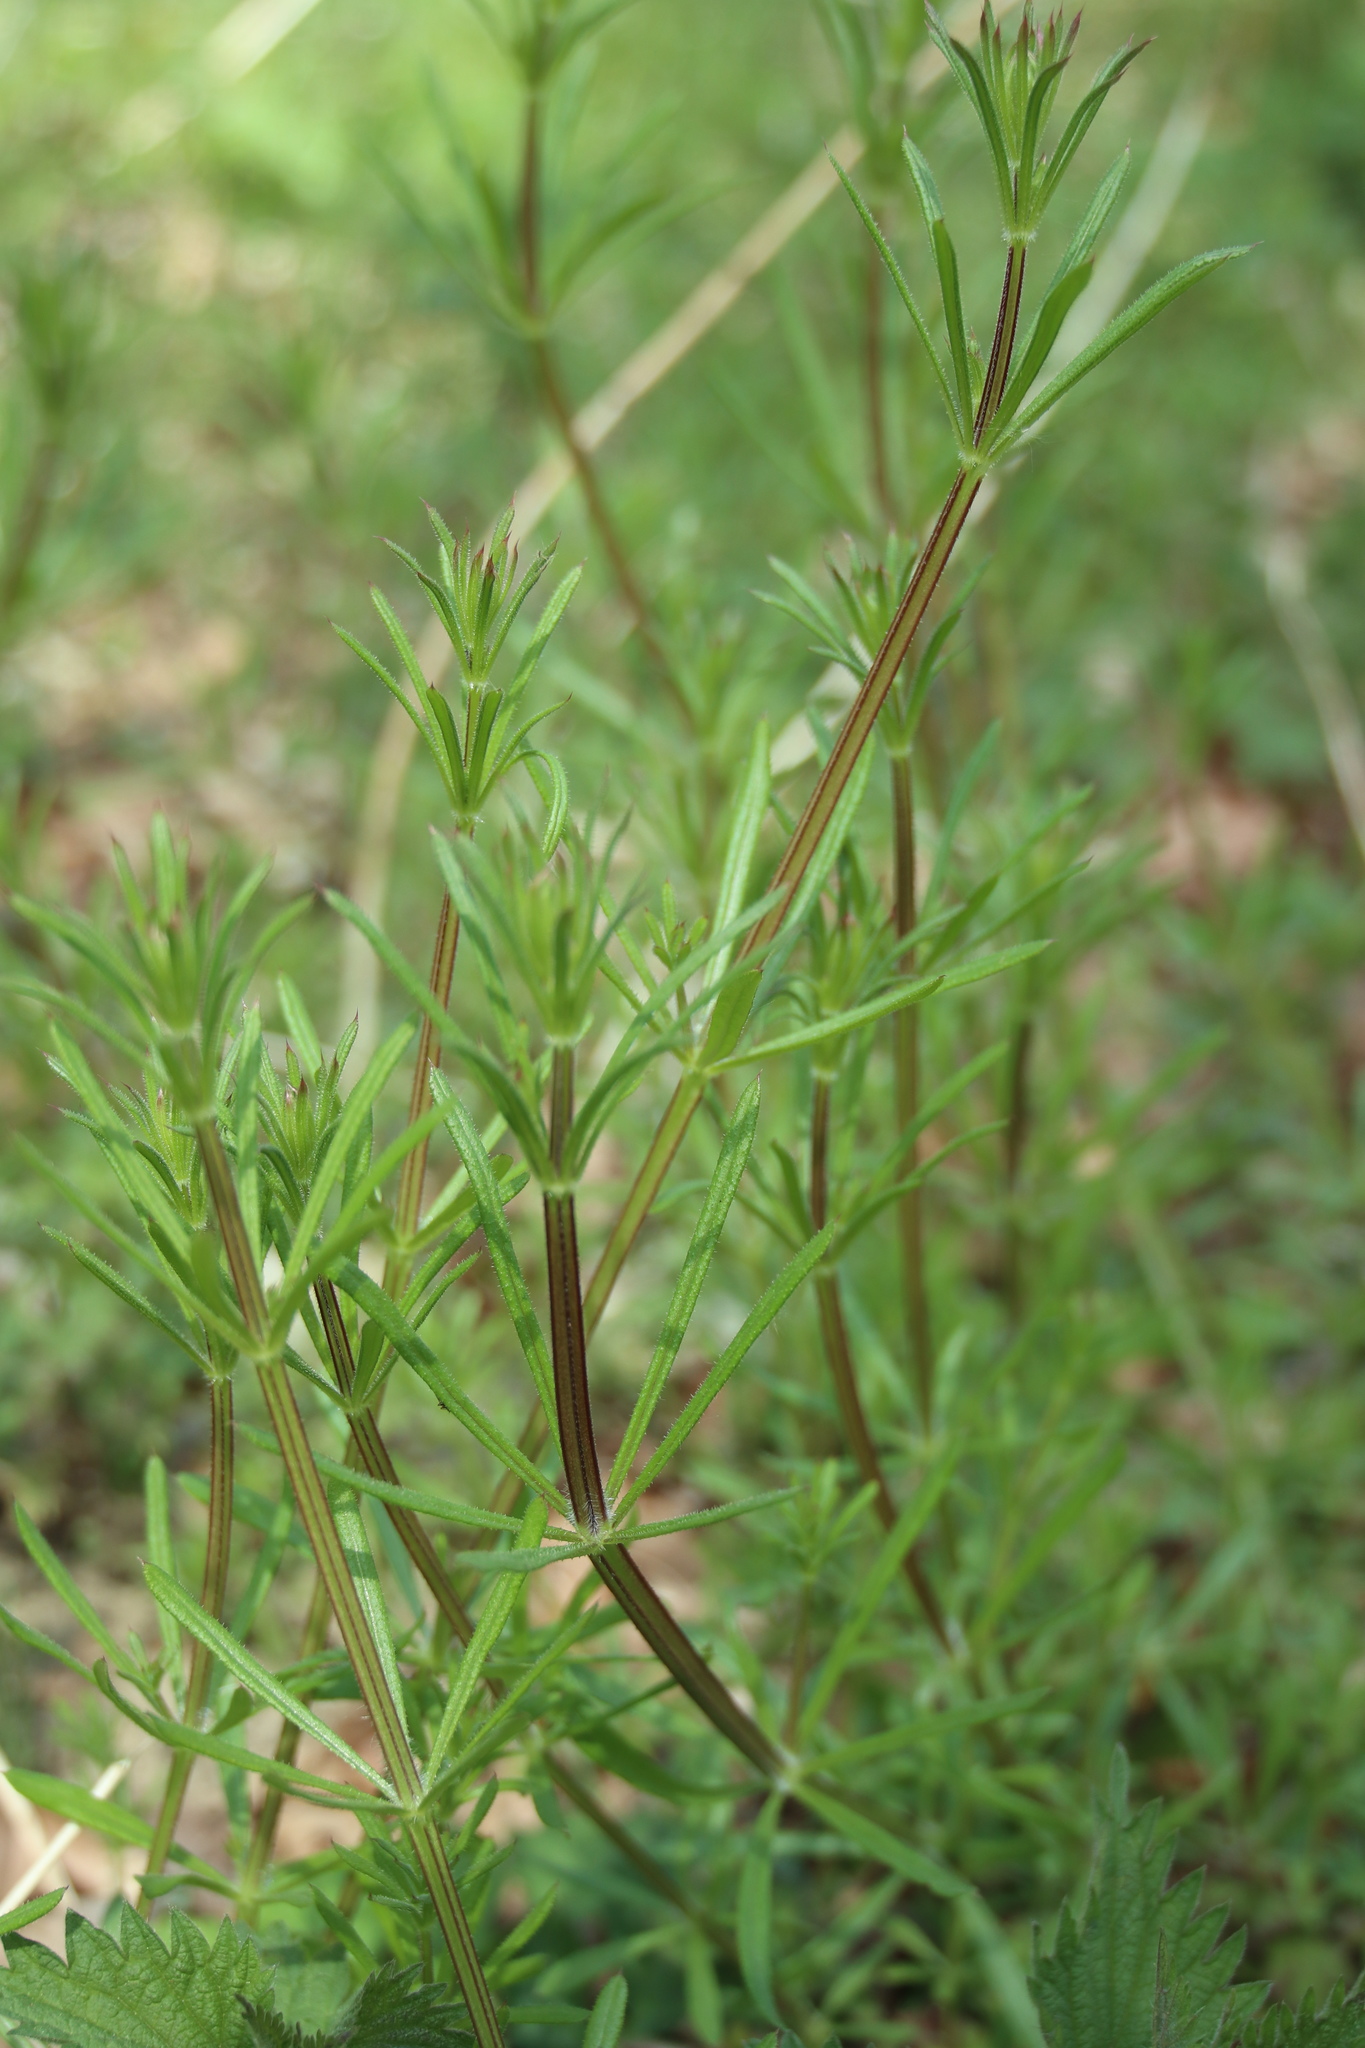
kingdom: Plantae
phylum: Tracheophyta
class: Magnoliopsida
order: Gentianales
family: Rubiaceae
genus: Galium
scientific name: Galium aparine
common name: Cleavers
